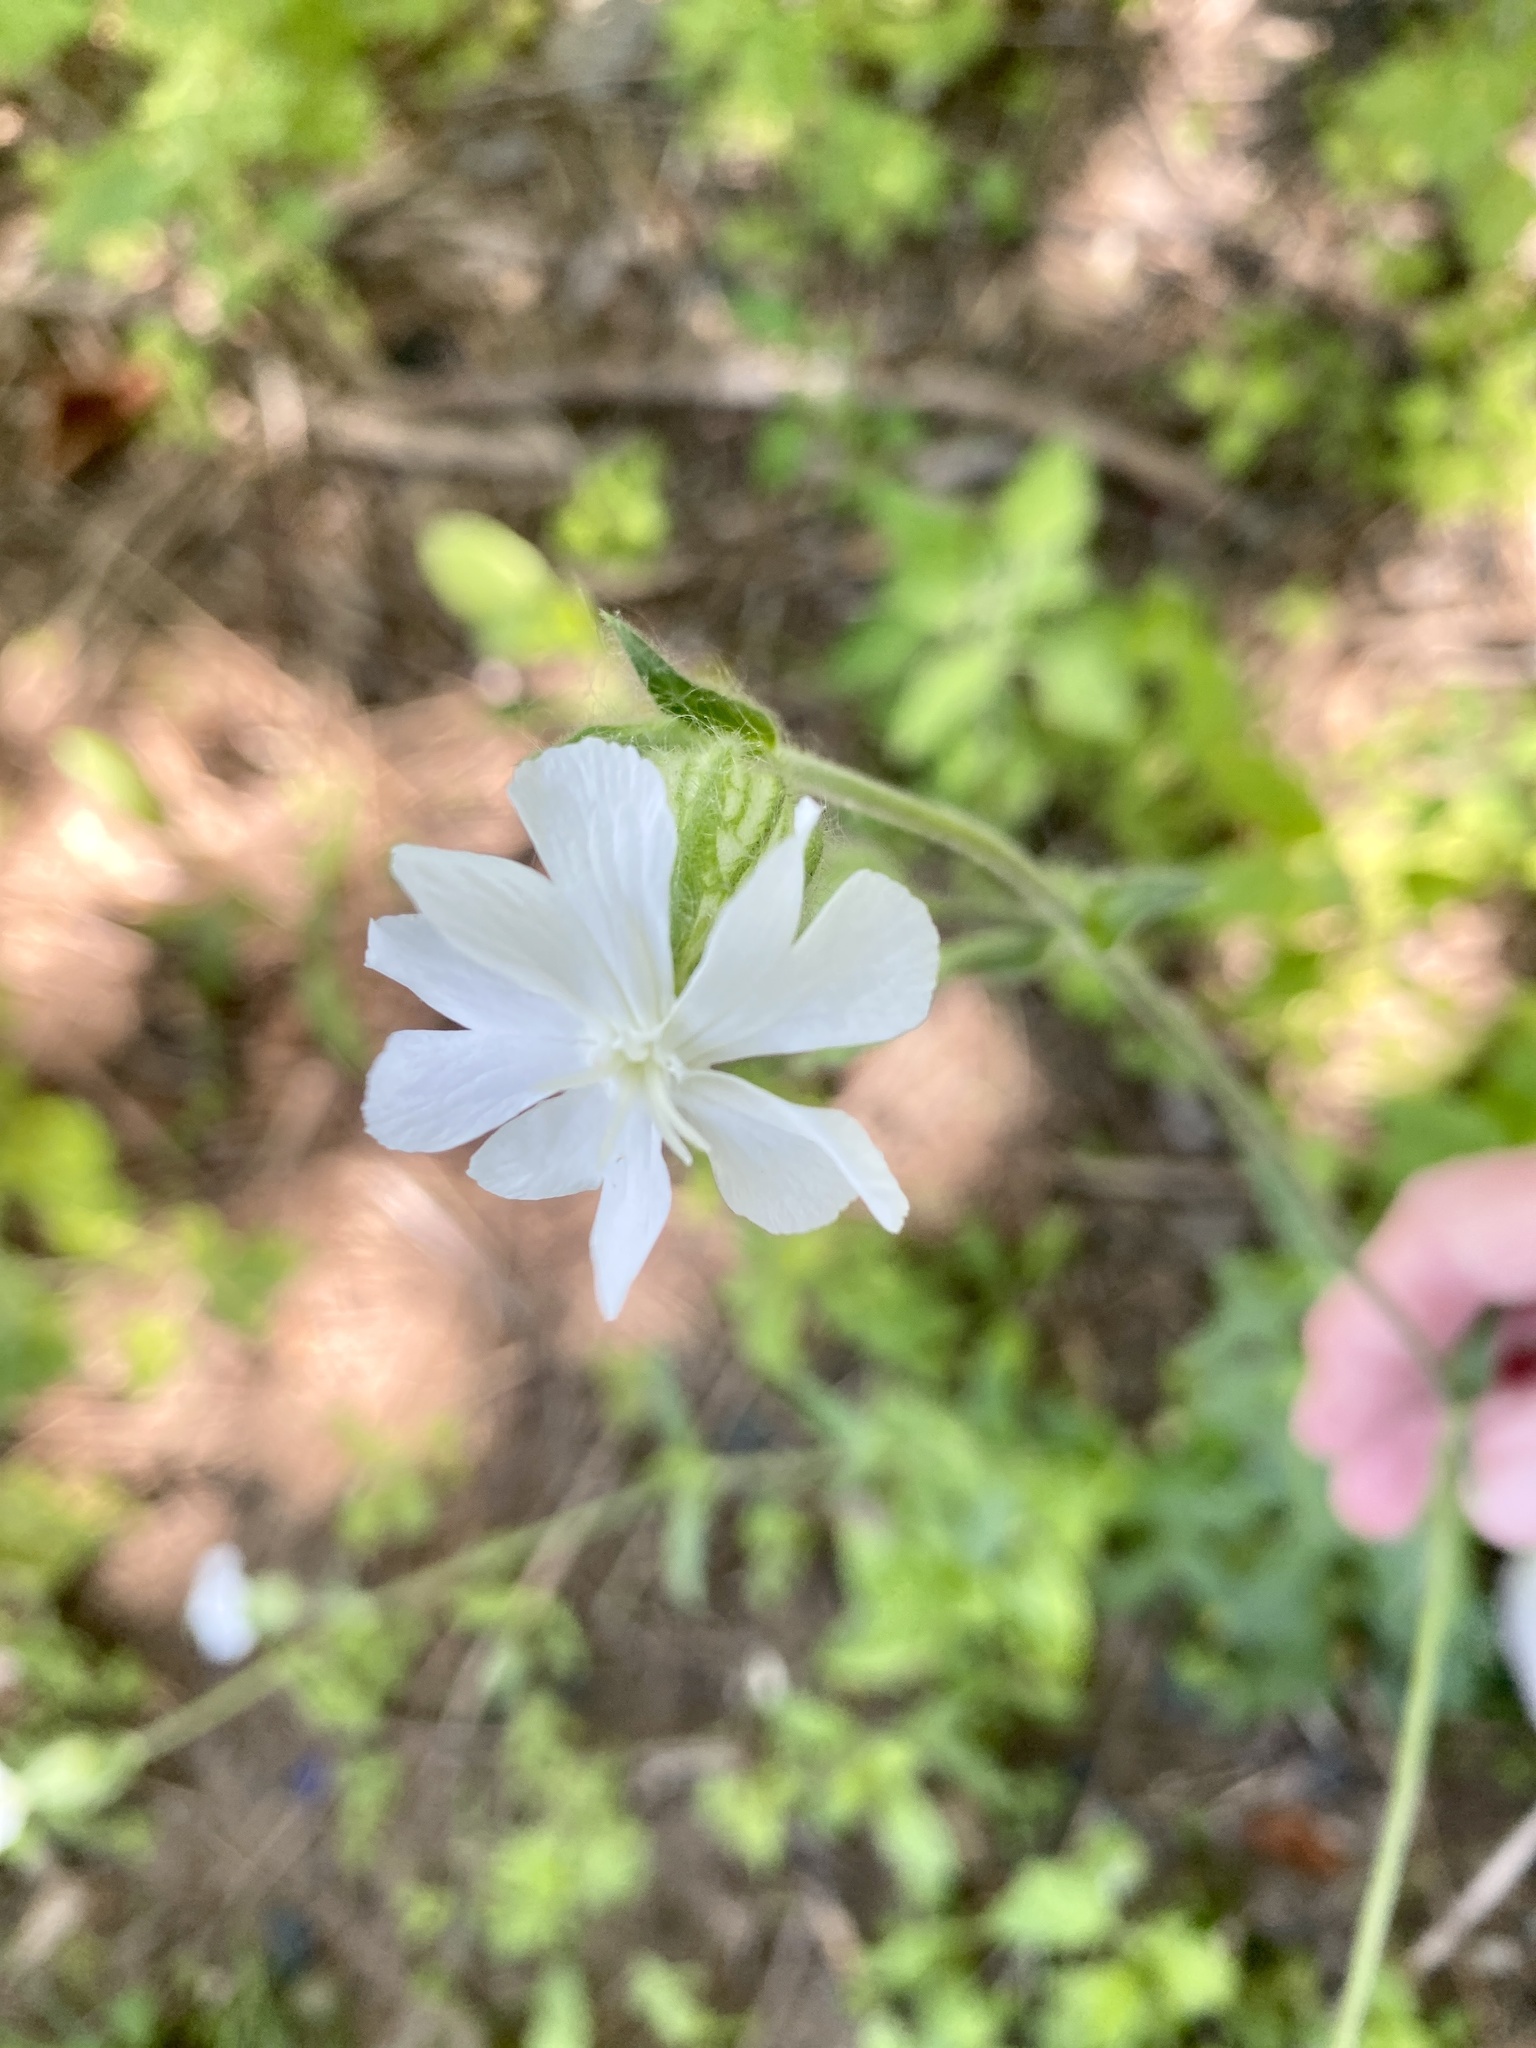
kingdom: Plantae
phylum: Tracheophyta
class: Magnoliopsida
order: Caryophyllales
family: Caryophyllaceae
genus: Silene
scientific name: Silene latifolia
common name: White campion
